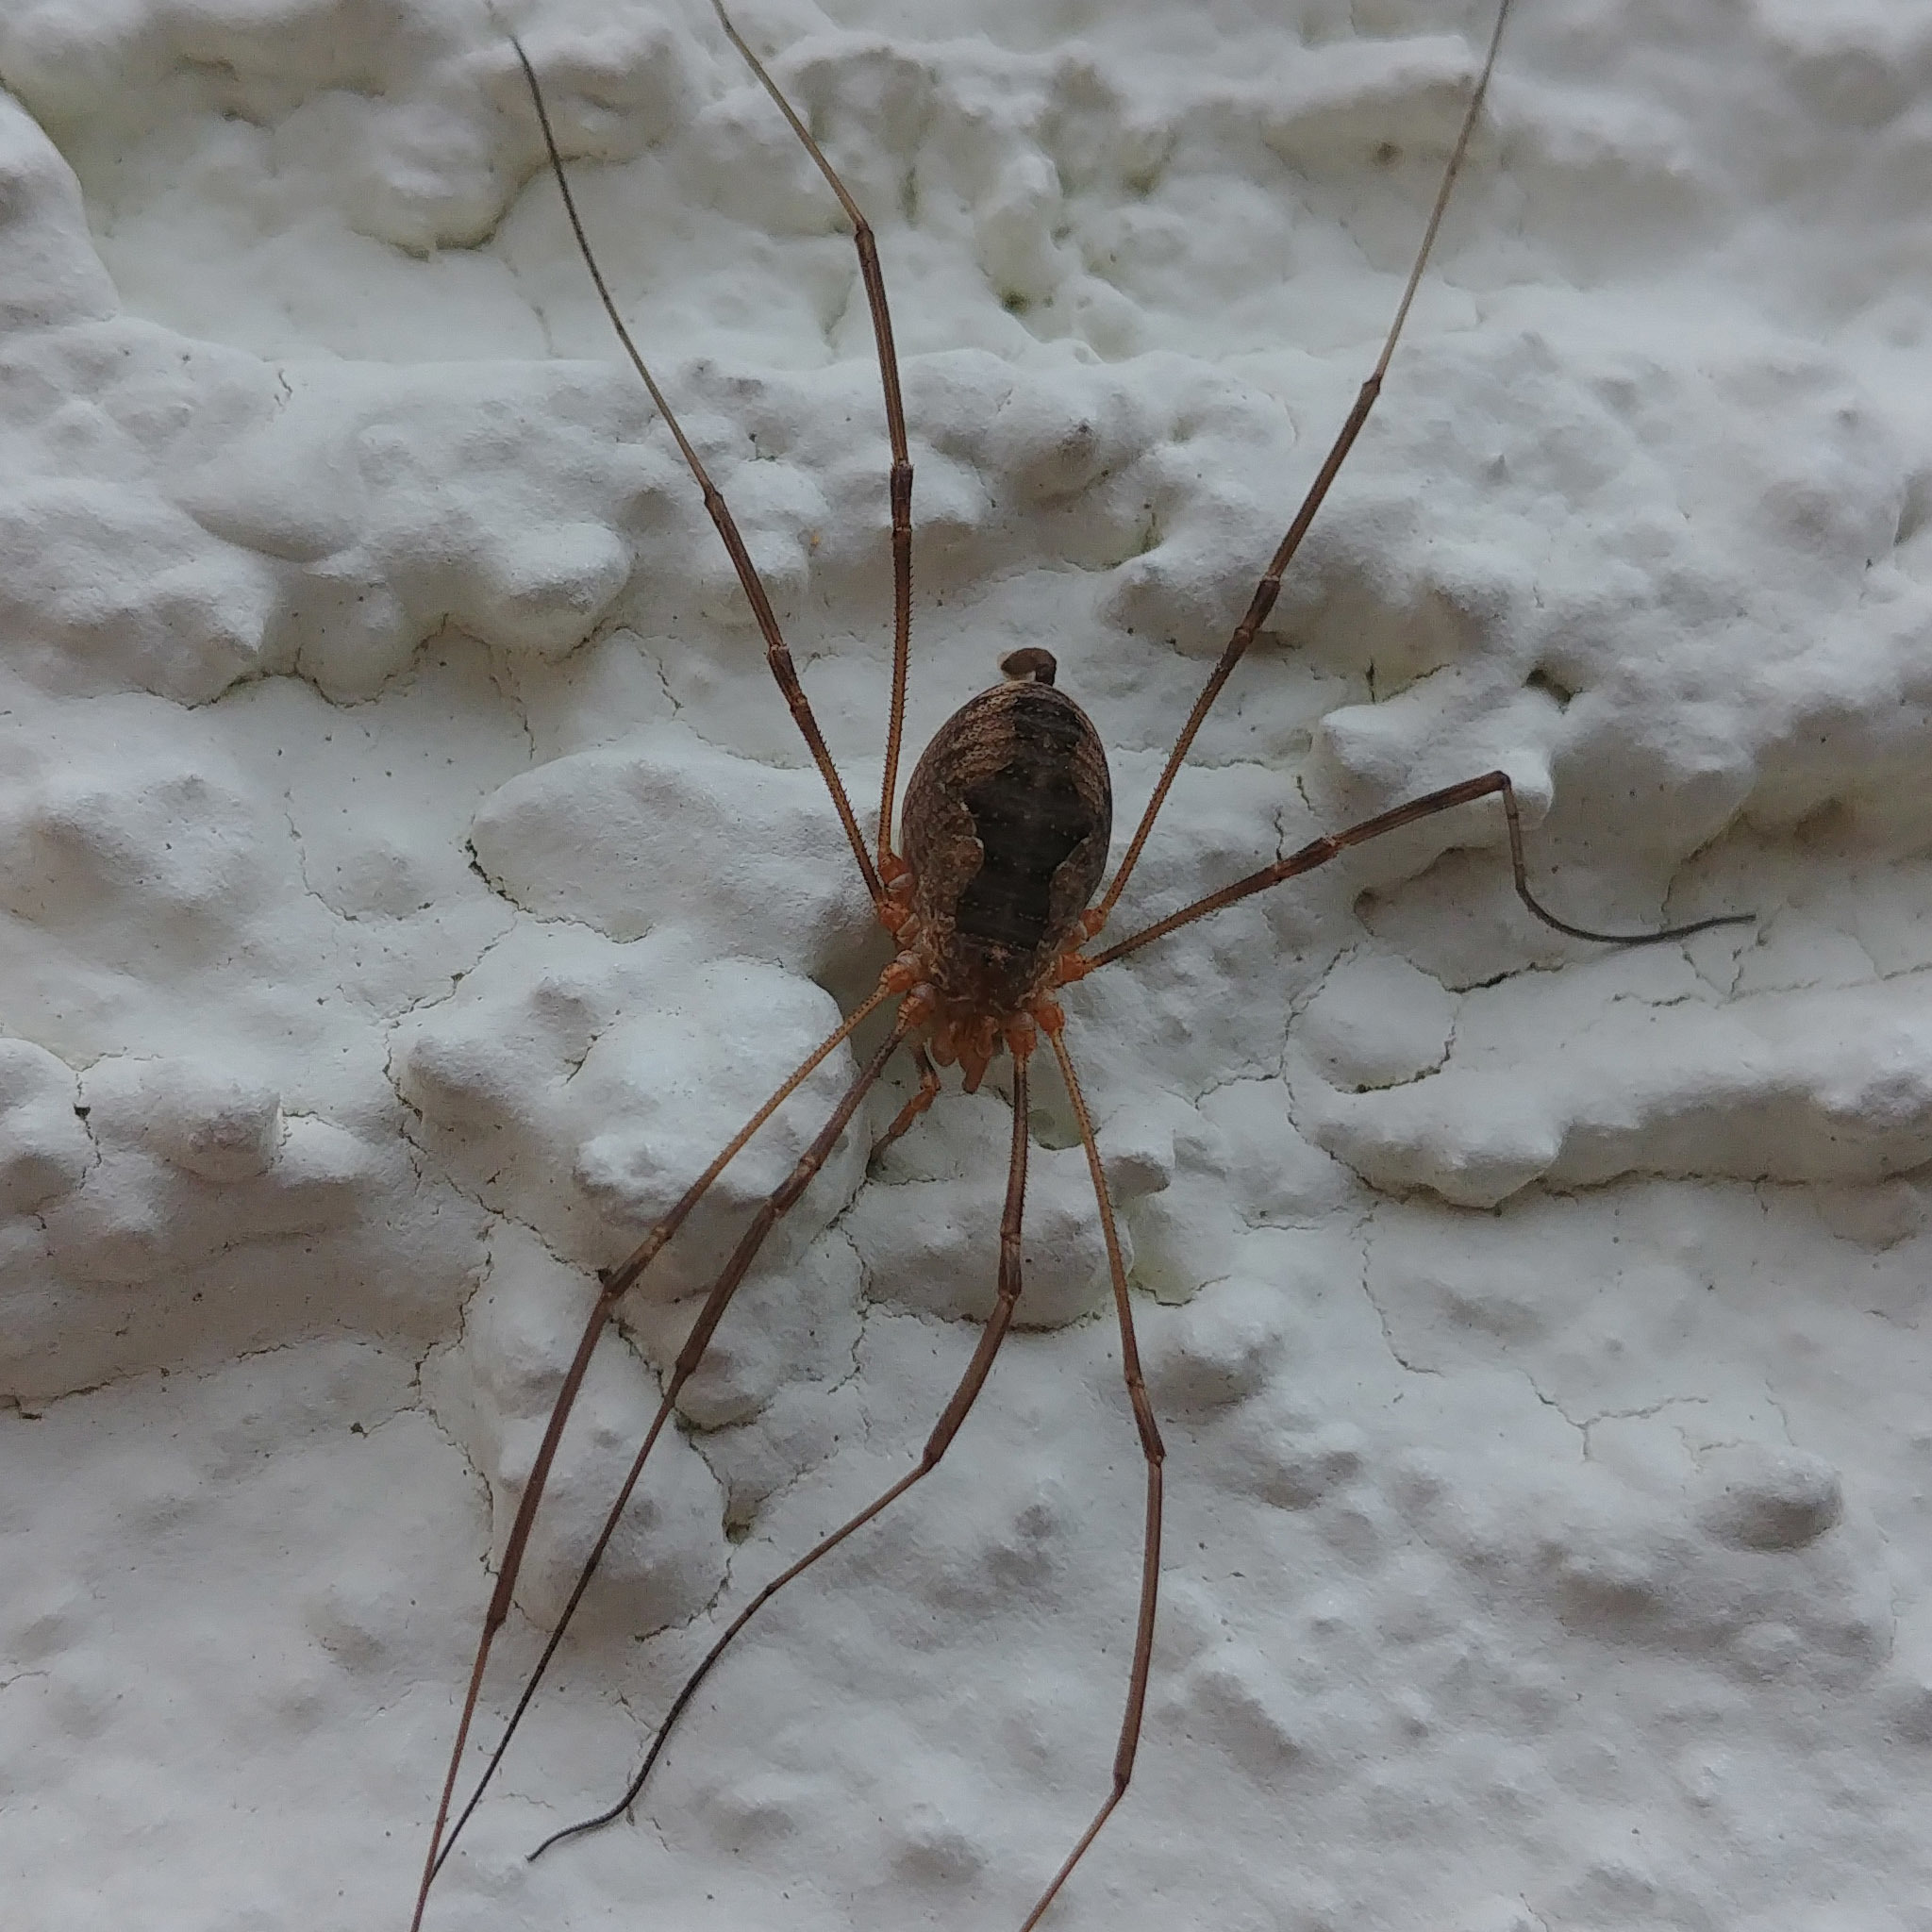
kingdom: Animalia
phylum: Arthropoda
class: Arachnida
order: Opiliones
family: Phalangiidae
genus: Phalangium
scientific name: Phalangium opilio
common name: Daddy longleg
